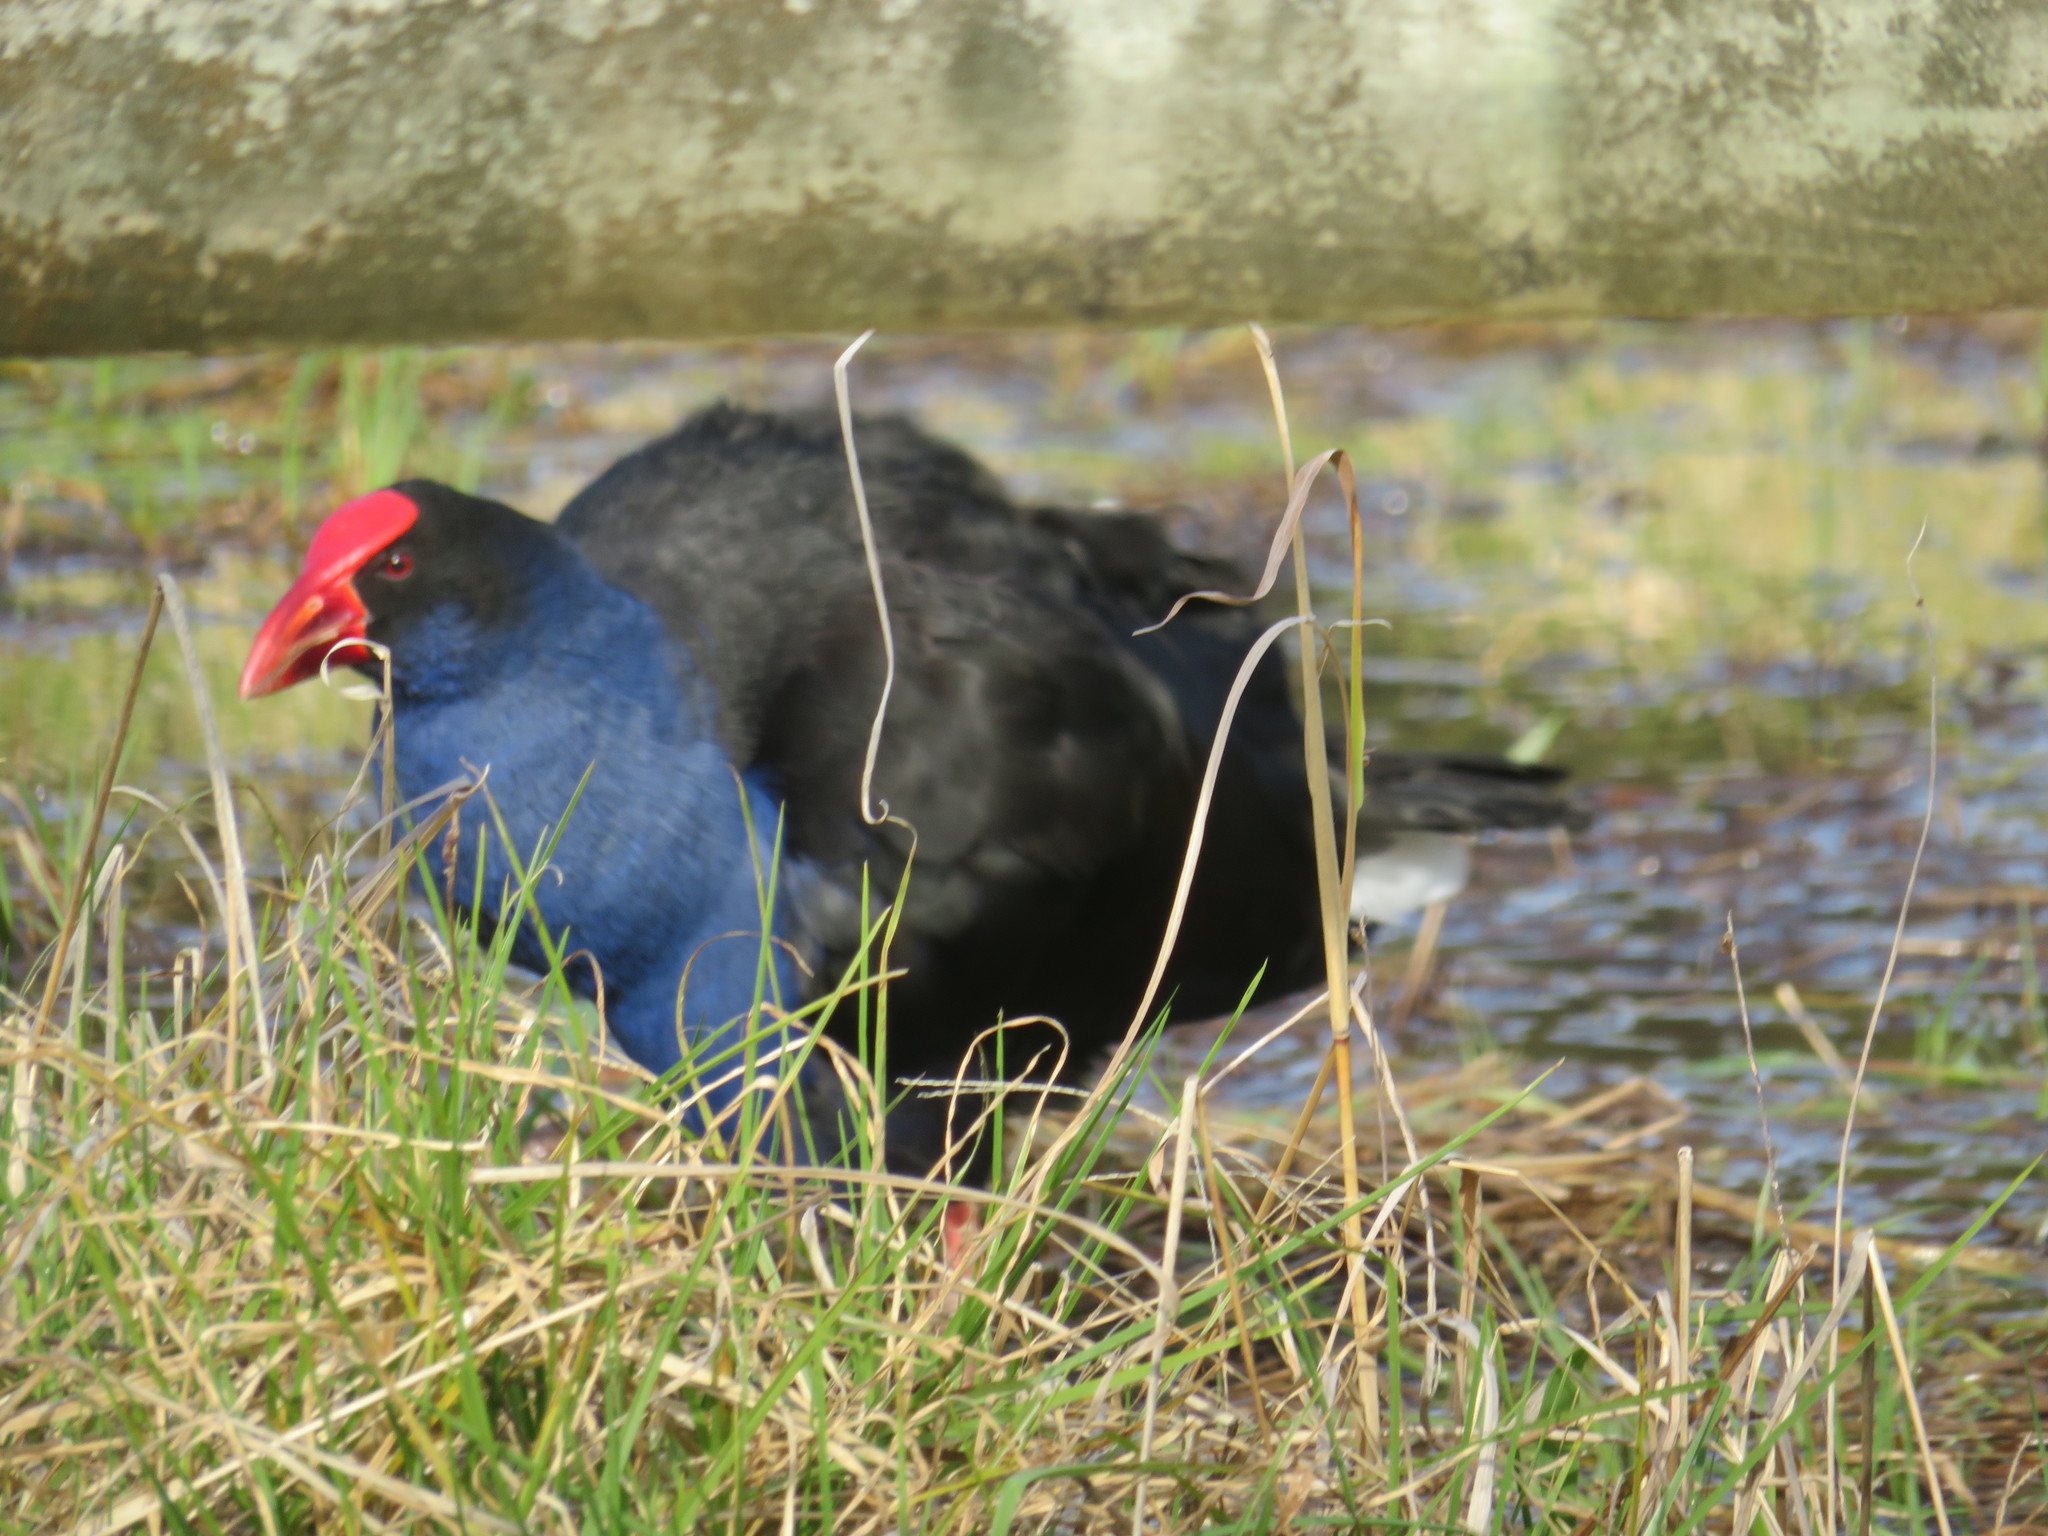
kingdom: Animalia
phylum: Chordata
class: Aves
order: Gruiformes
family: Rallidae
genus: Porphyrio
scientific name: Porphyrio melanotus
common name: Australasian swamphen
